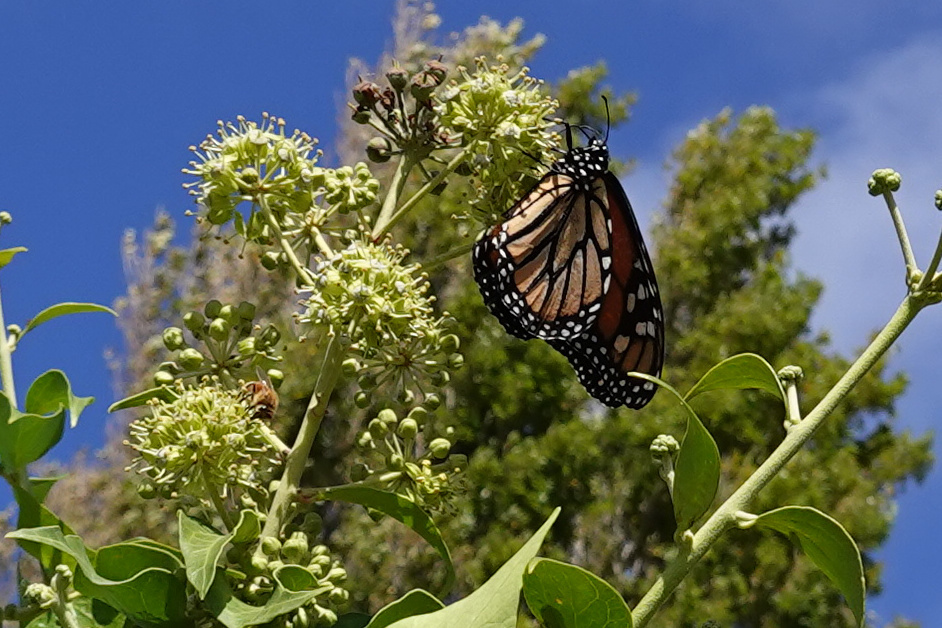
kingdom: Animalia
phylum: Arthropoda
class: Insecta
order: Lepidoptera
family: Nymphalidae
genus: Danaus
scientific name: Danaus plexippus
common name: Monarch
